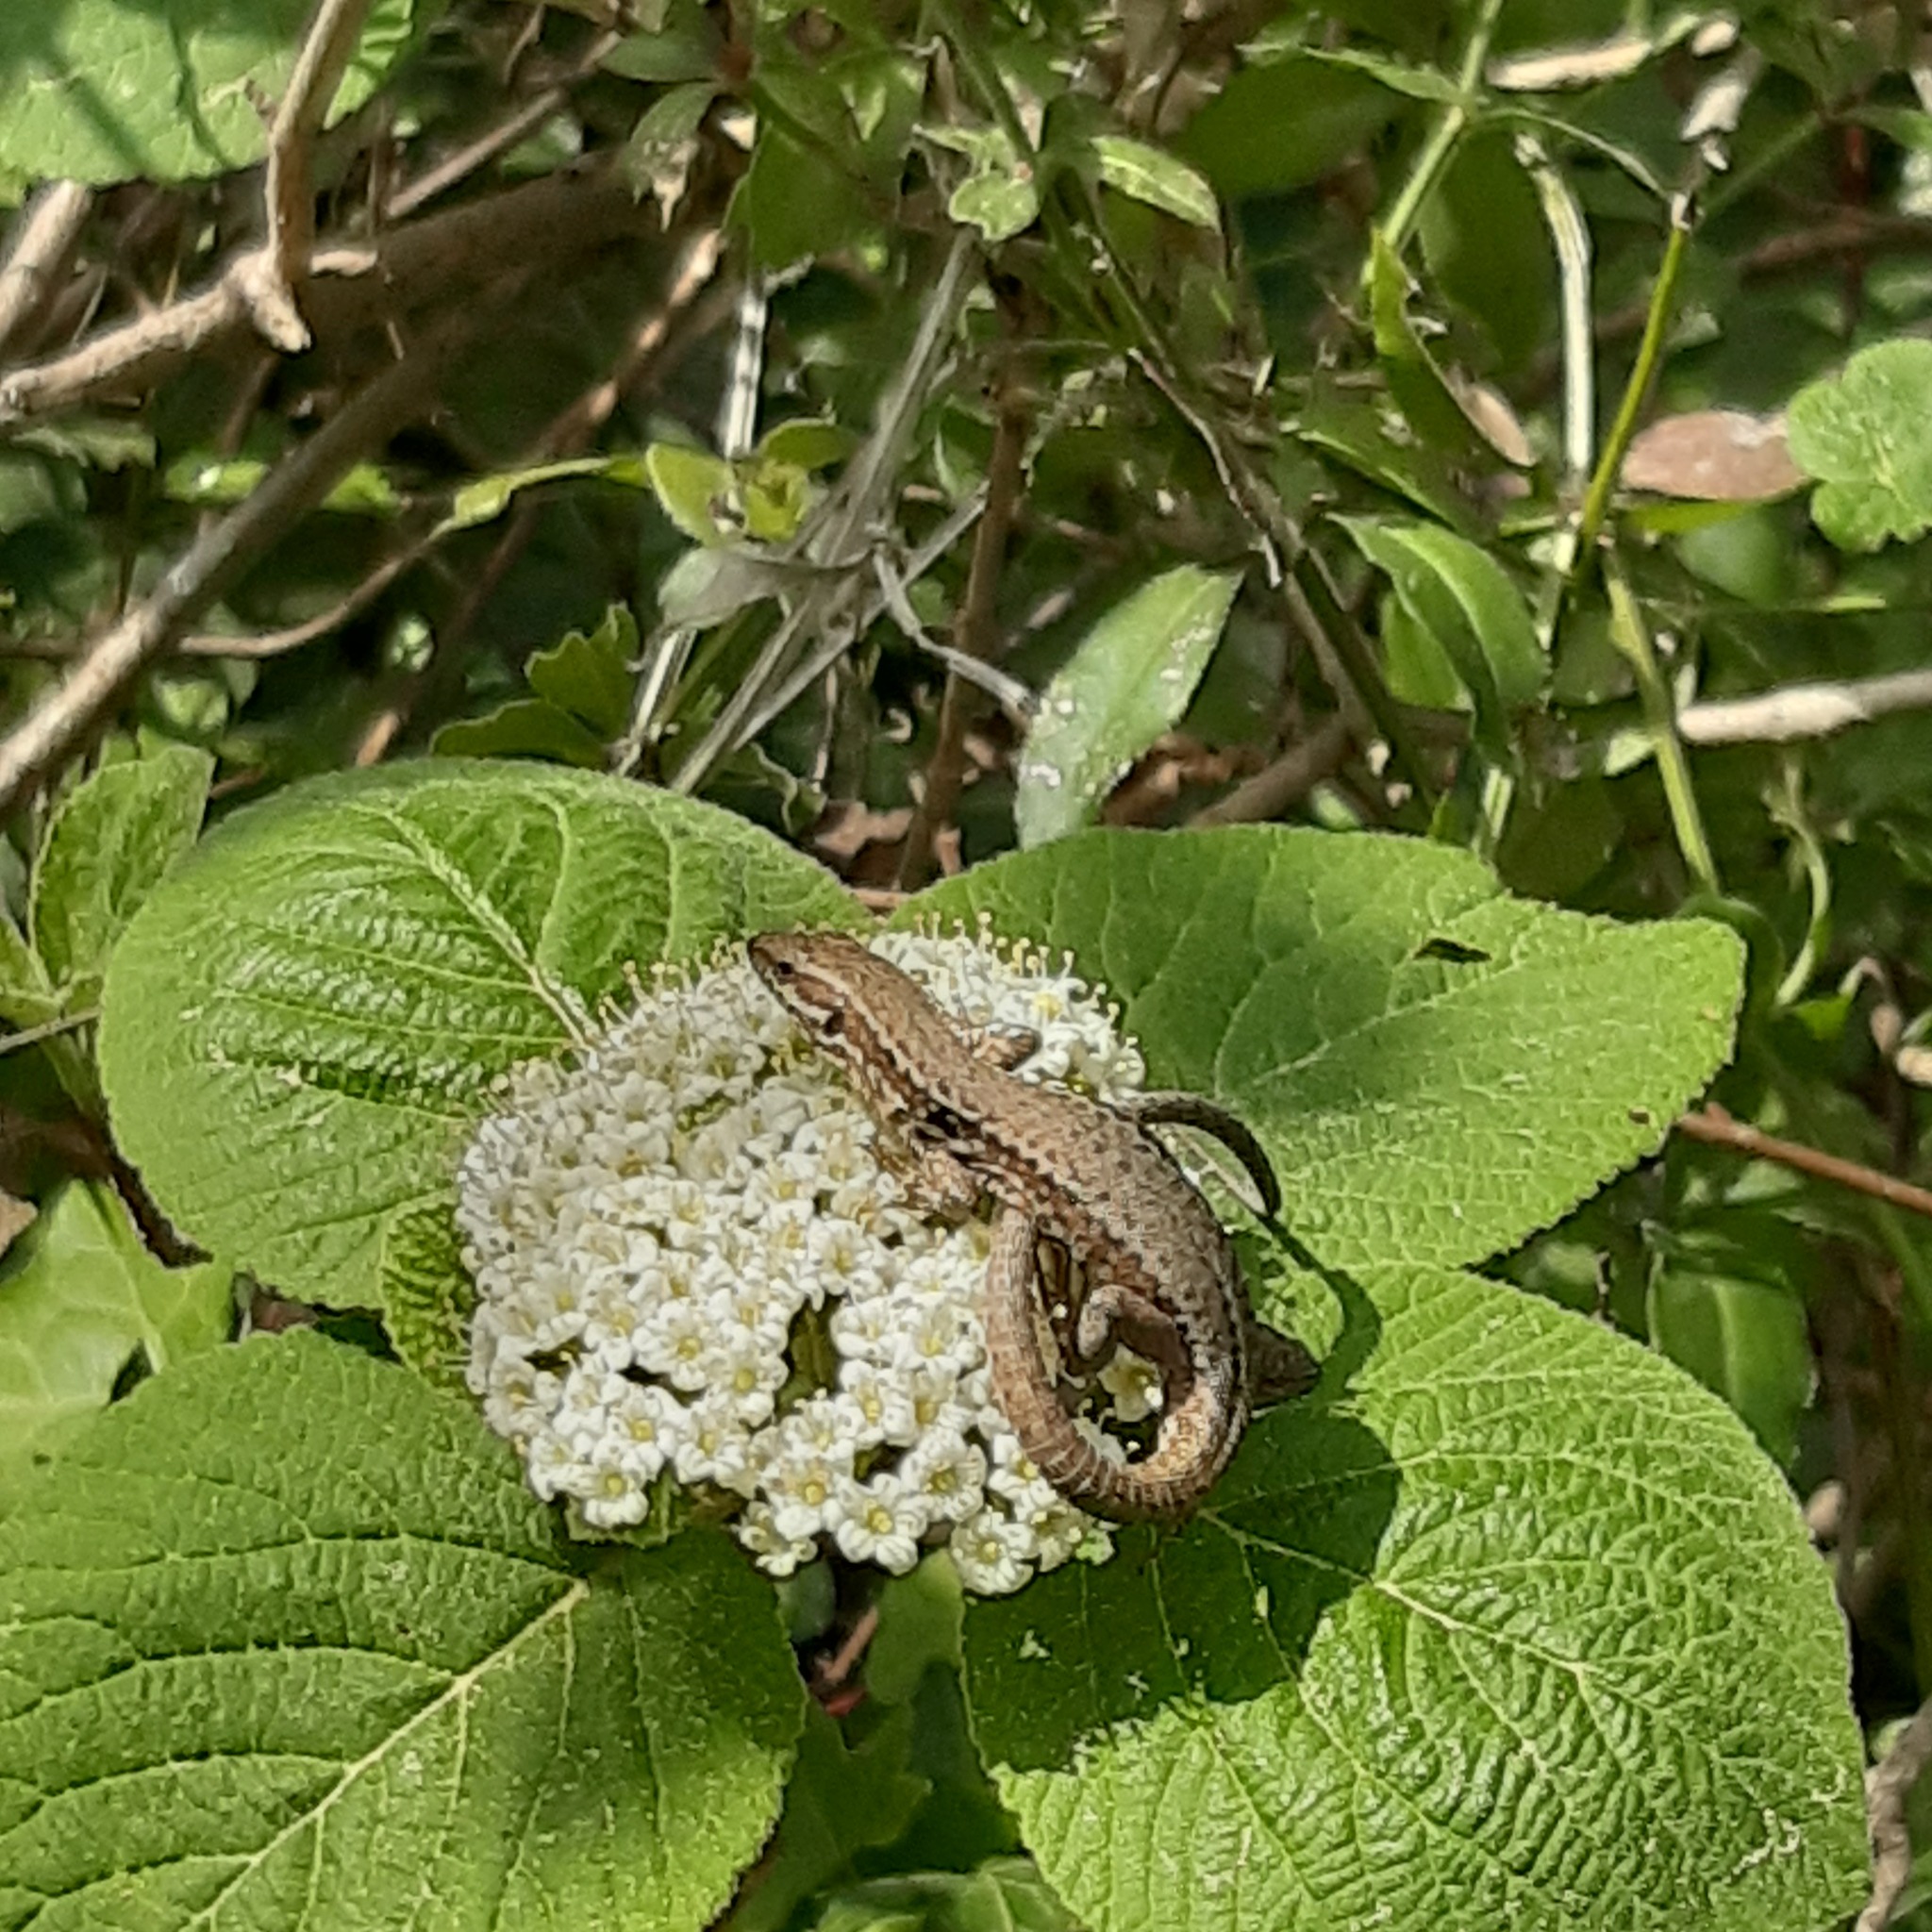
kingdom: Animalia
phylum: Chordata
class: Squamata
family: Lacertidae
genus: Podarcis
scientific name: Podarcis muralis
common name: Common wall lizard
